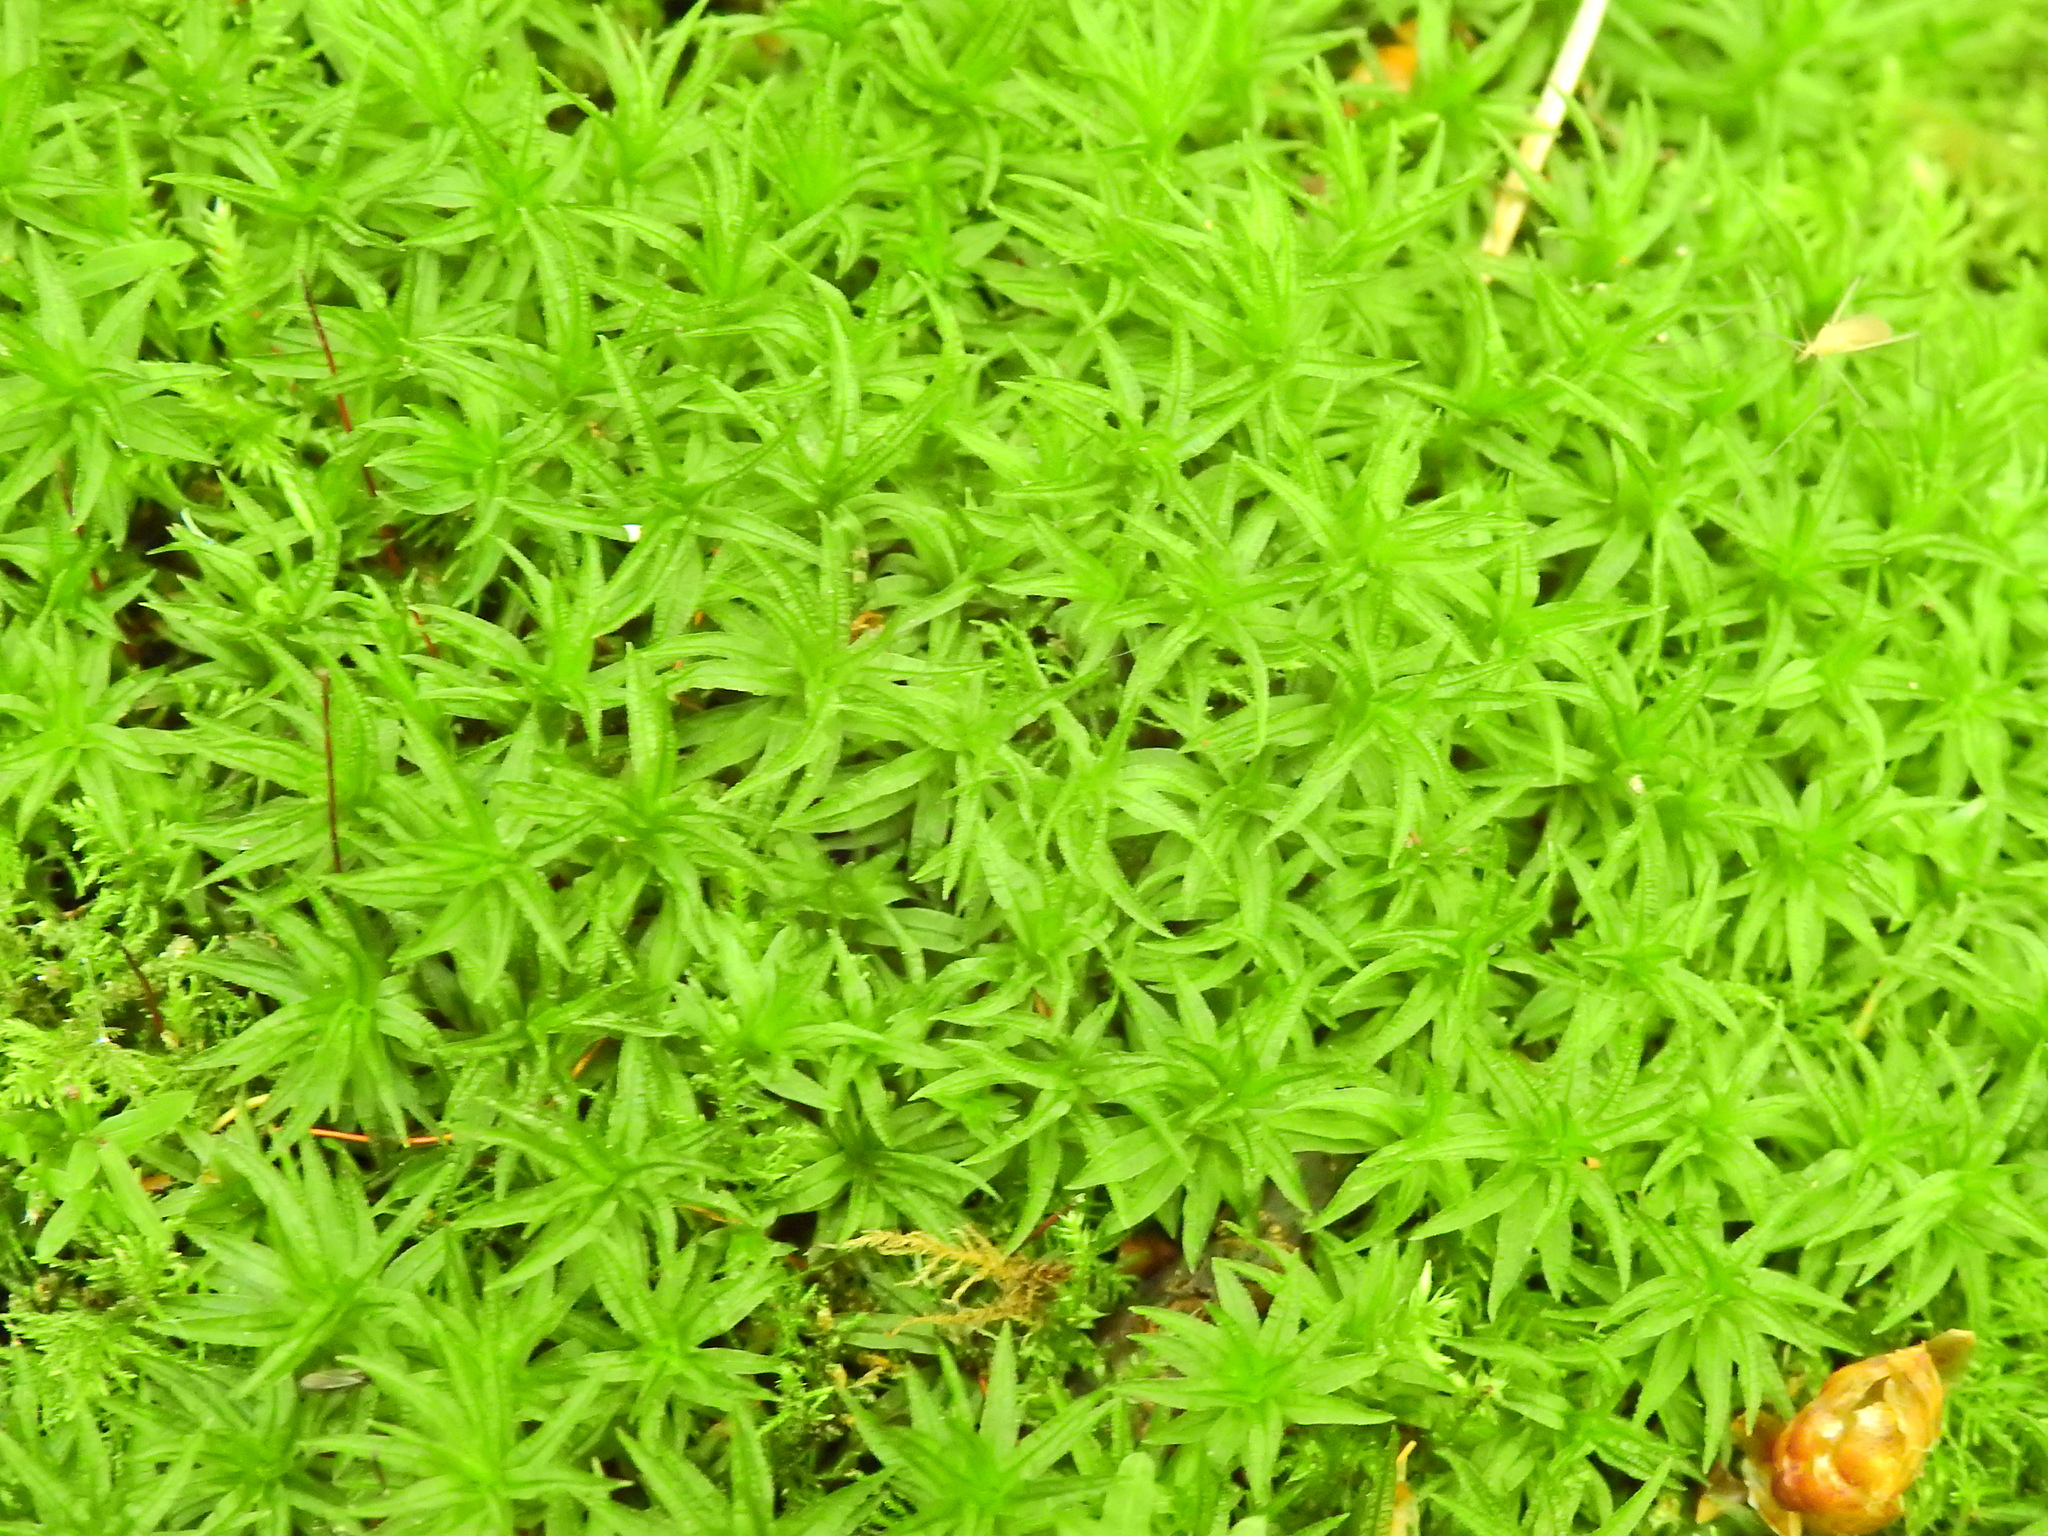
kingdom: Plantae
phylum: Bryophyta
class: Polytrichopsida
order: Polytrichales
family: Polytrichaceae
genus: Atrichum
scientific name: Atrichum undulatum
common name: Common smoothcap
